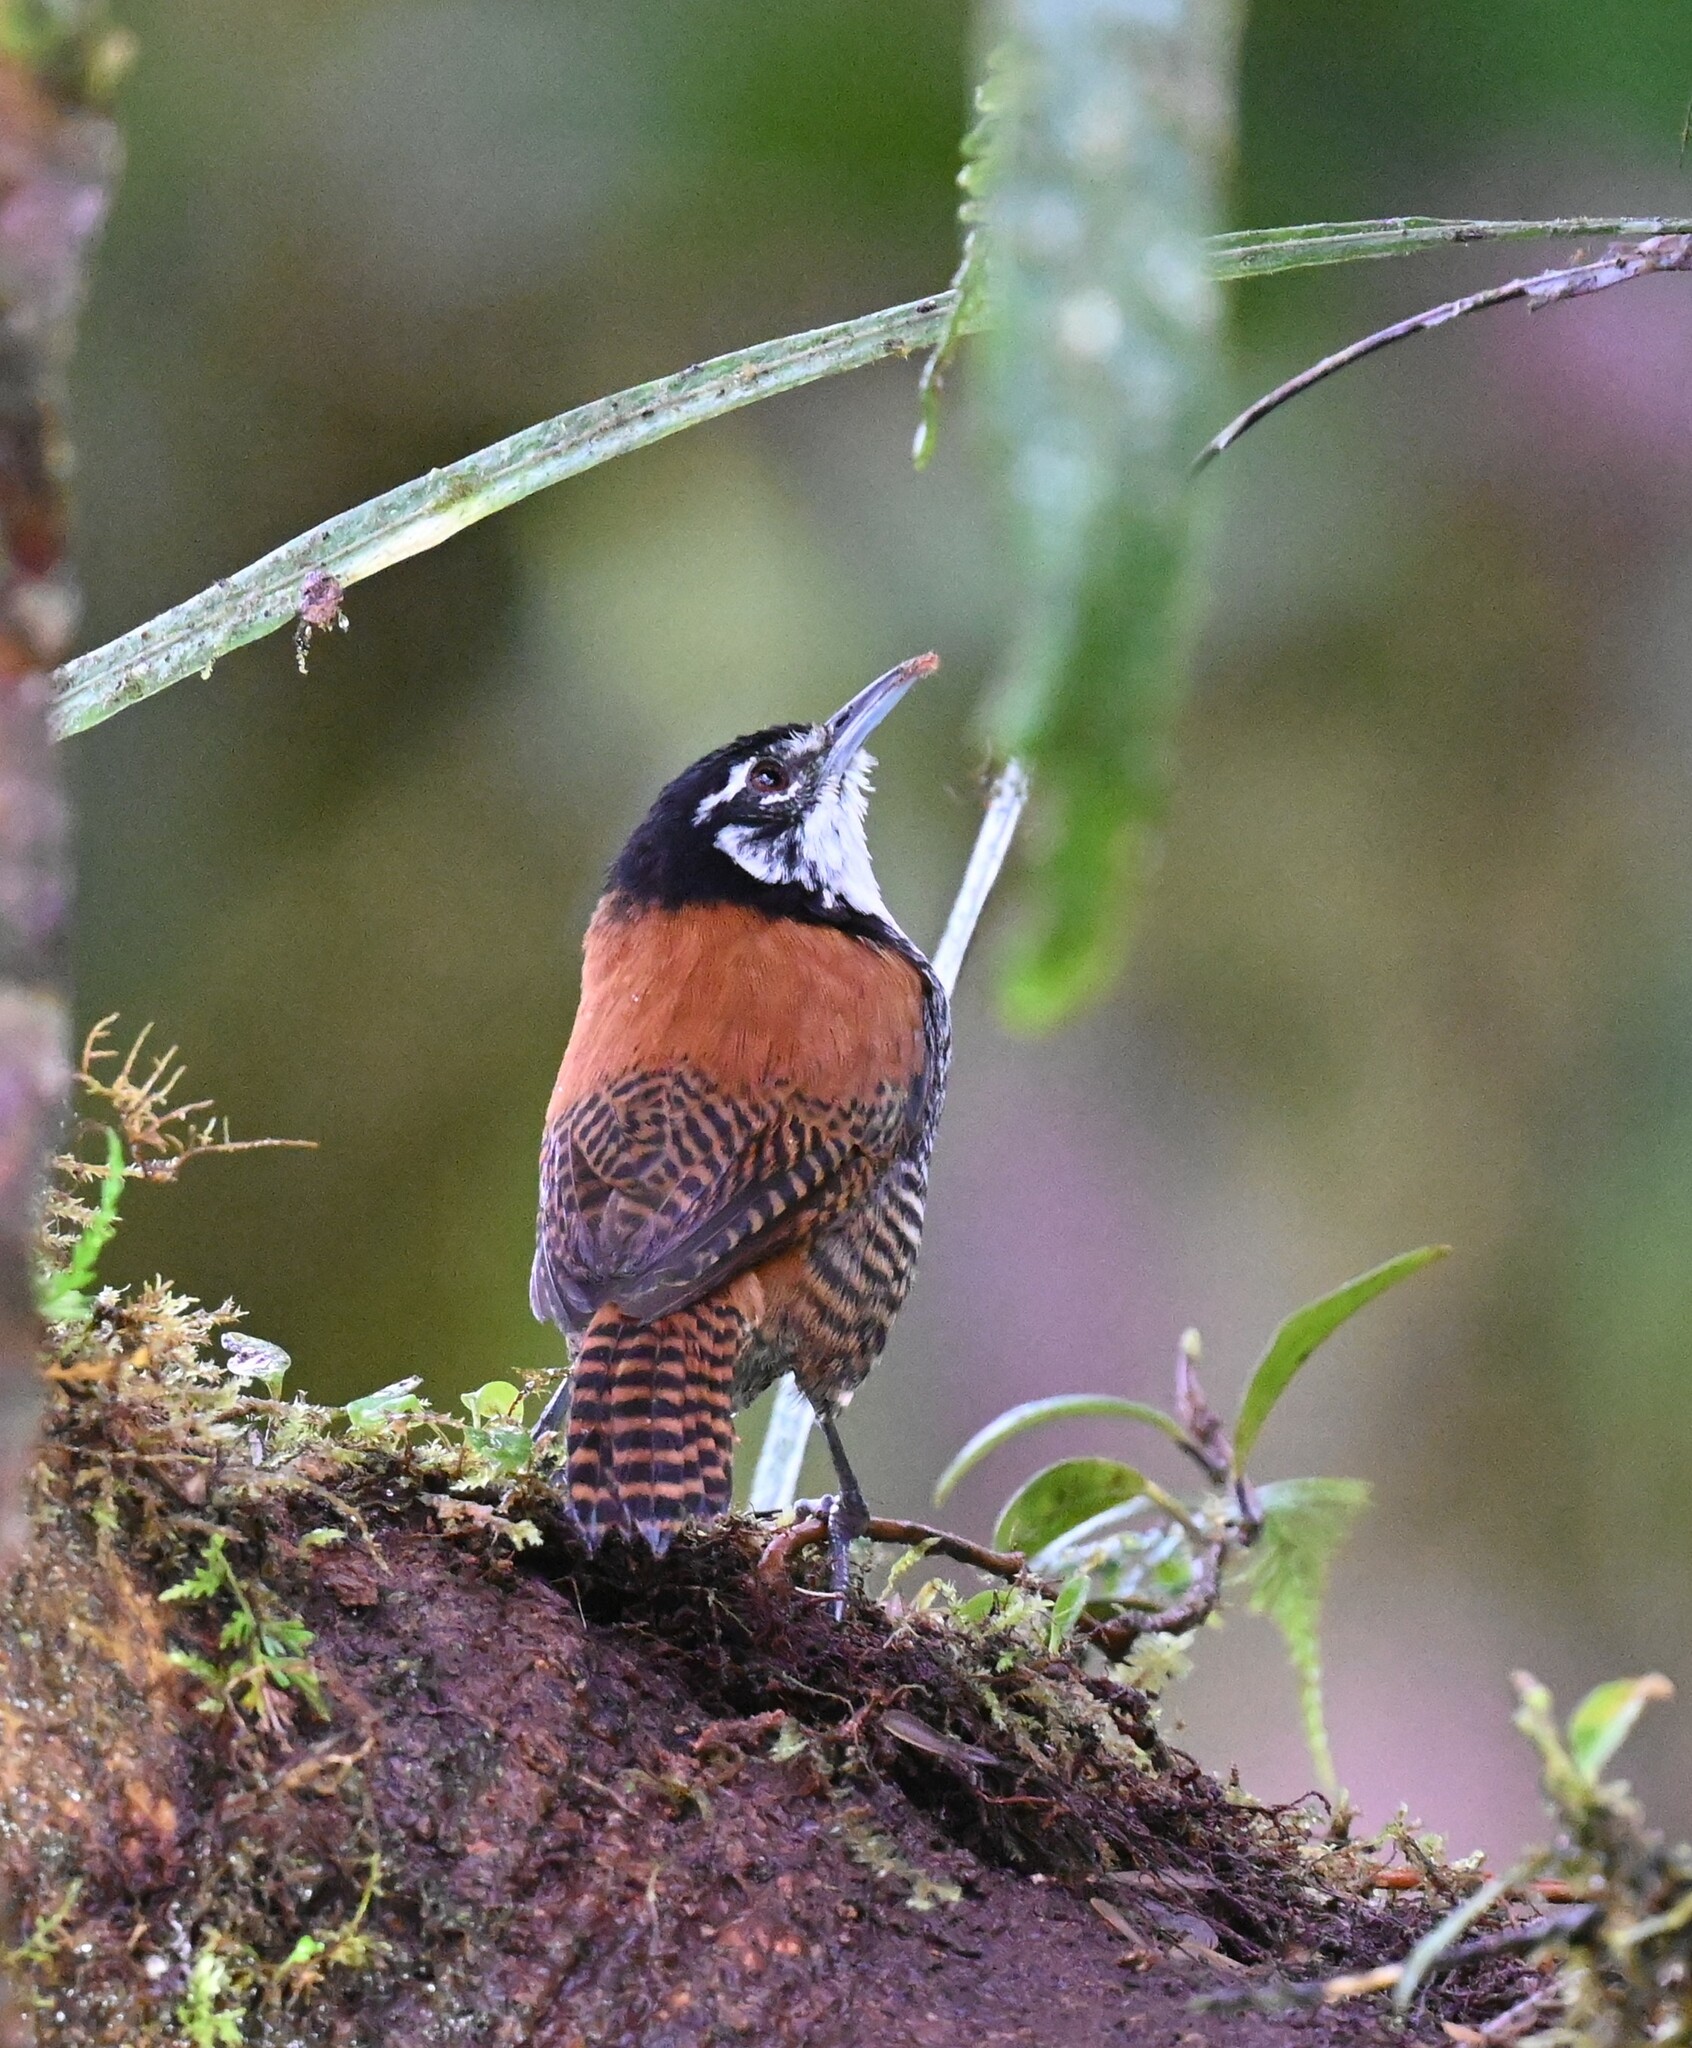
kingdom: Animalia
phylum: Chordata
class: Aves
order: Passeriformes
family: Troglodytidae
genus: Cantorchilus
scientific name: Cantorchilus nigricapillus
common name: Bay wren
